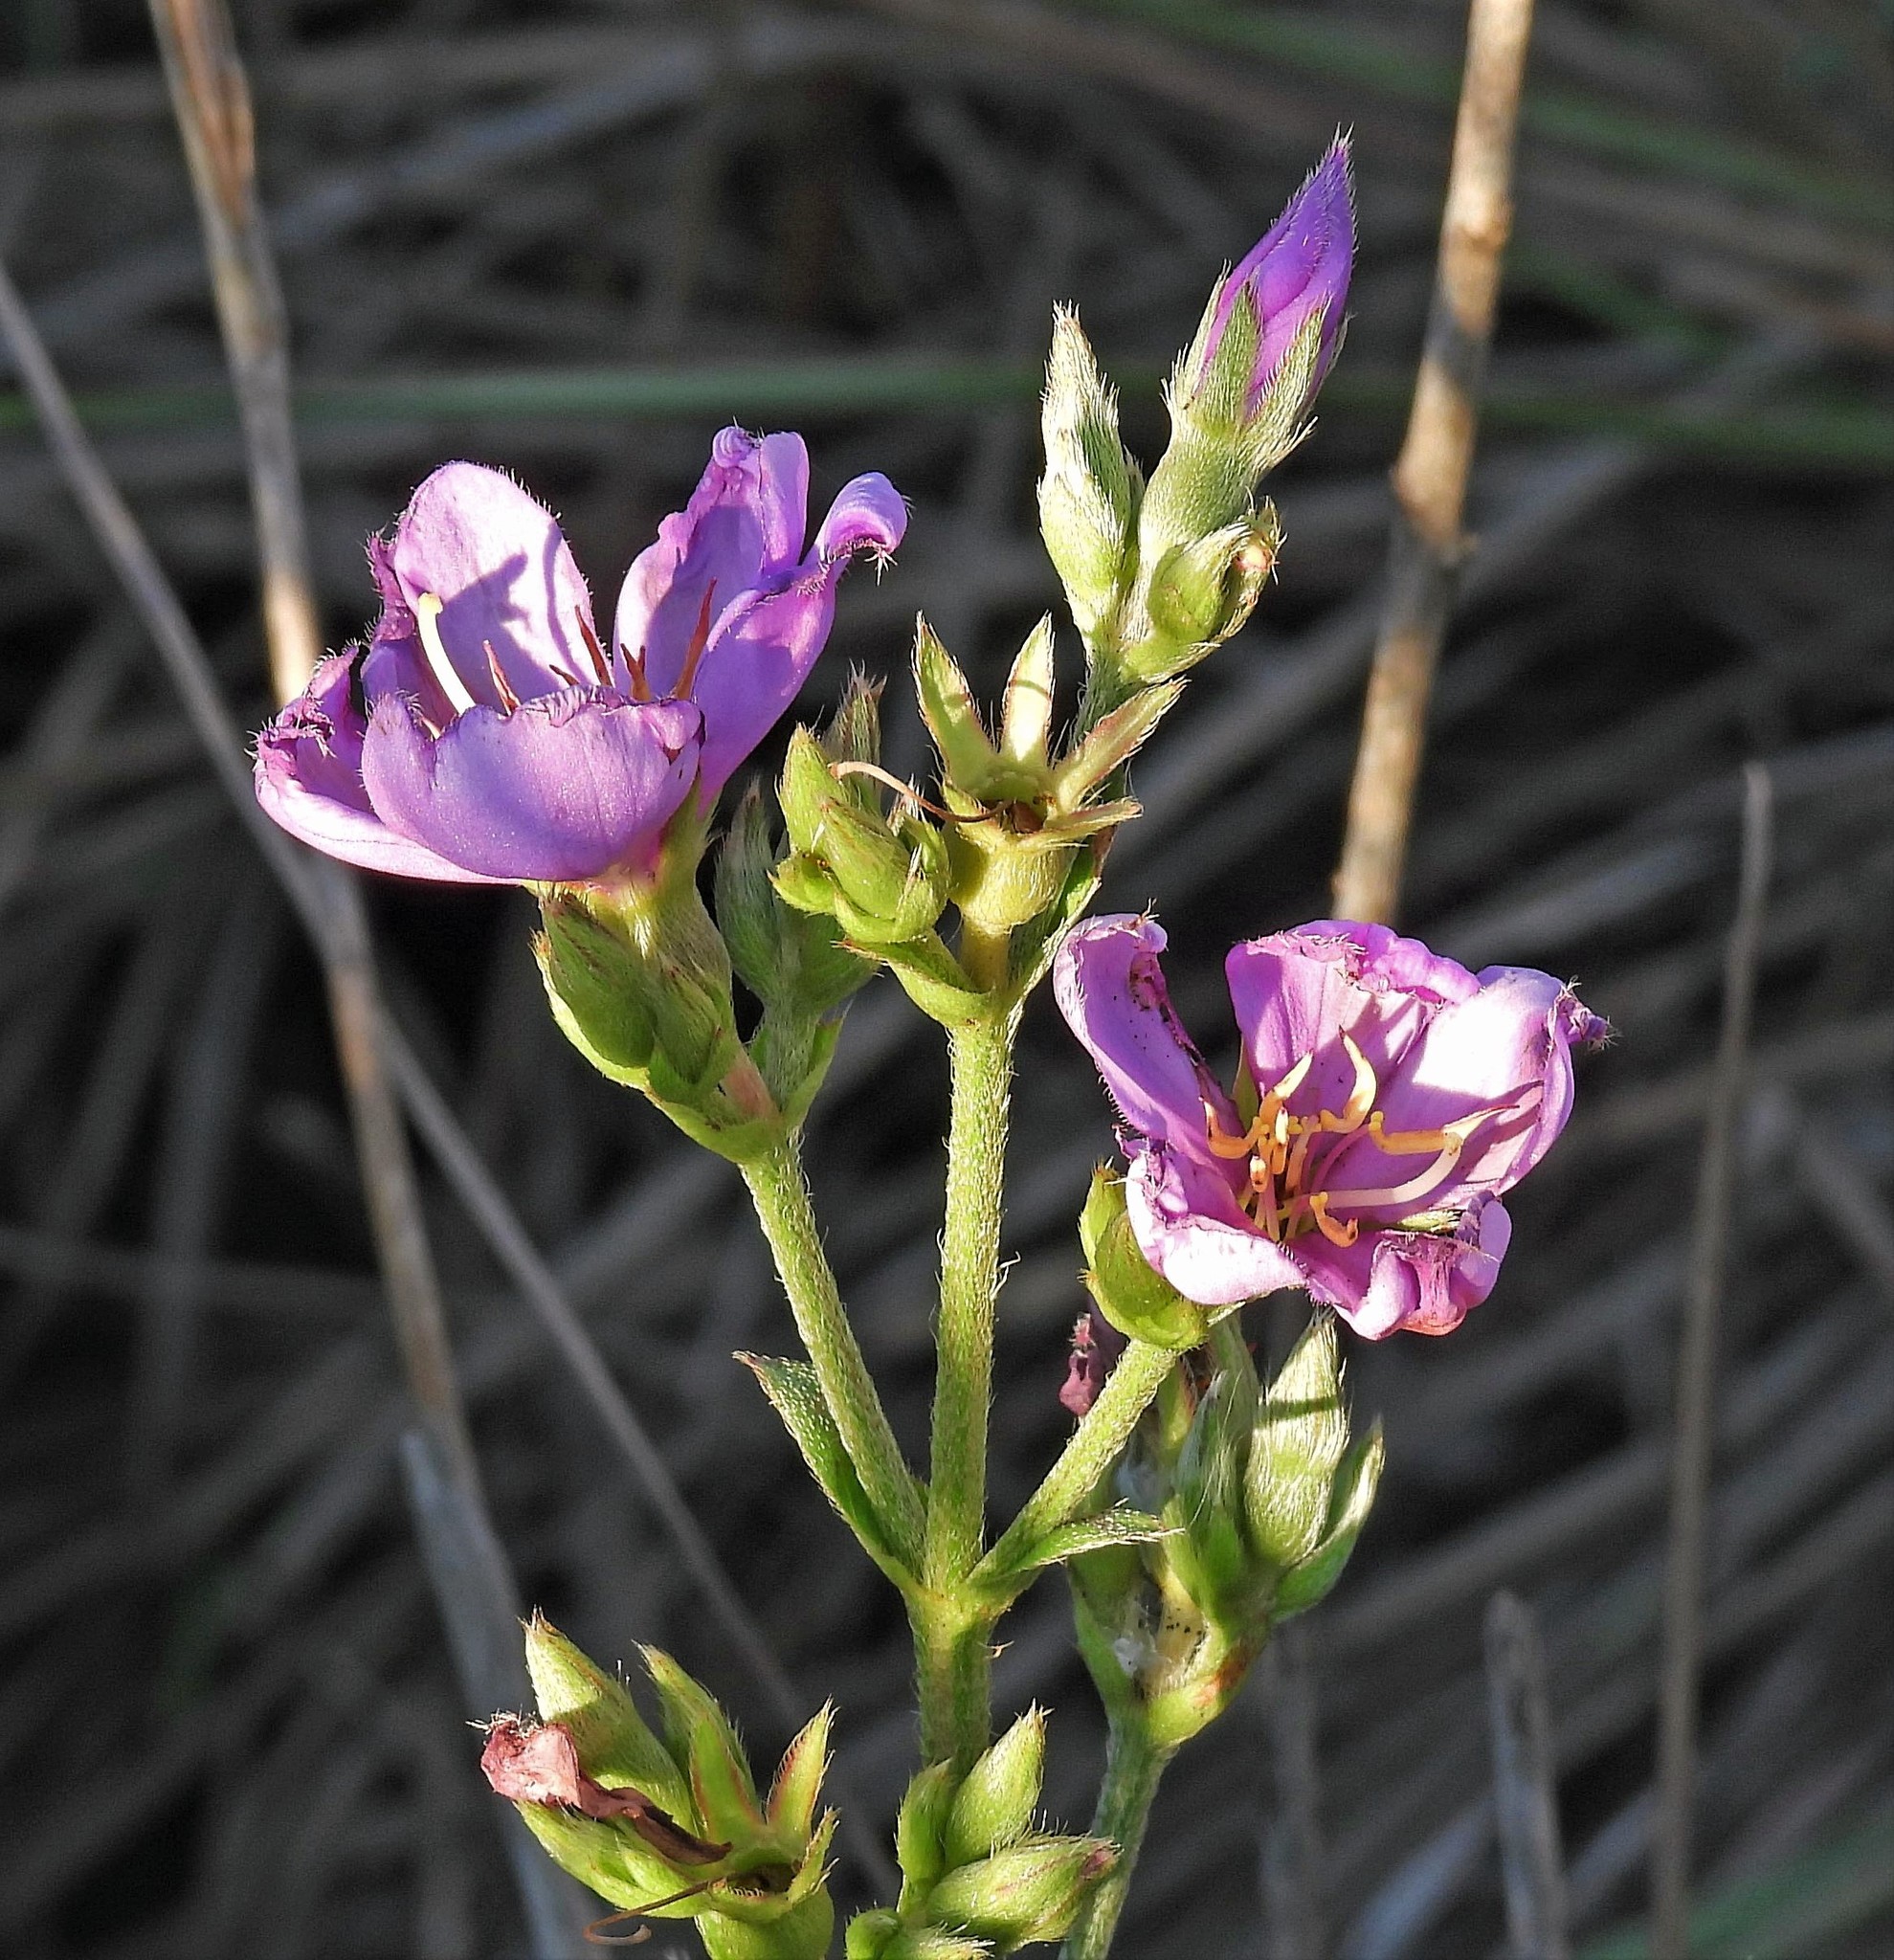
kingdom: Plantae
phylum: Tracheophyta
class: Magnoliopsida
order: Myrtales
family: Melastomataceae
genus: Chaetogastra
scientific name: Chaetogastra gracilis
